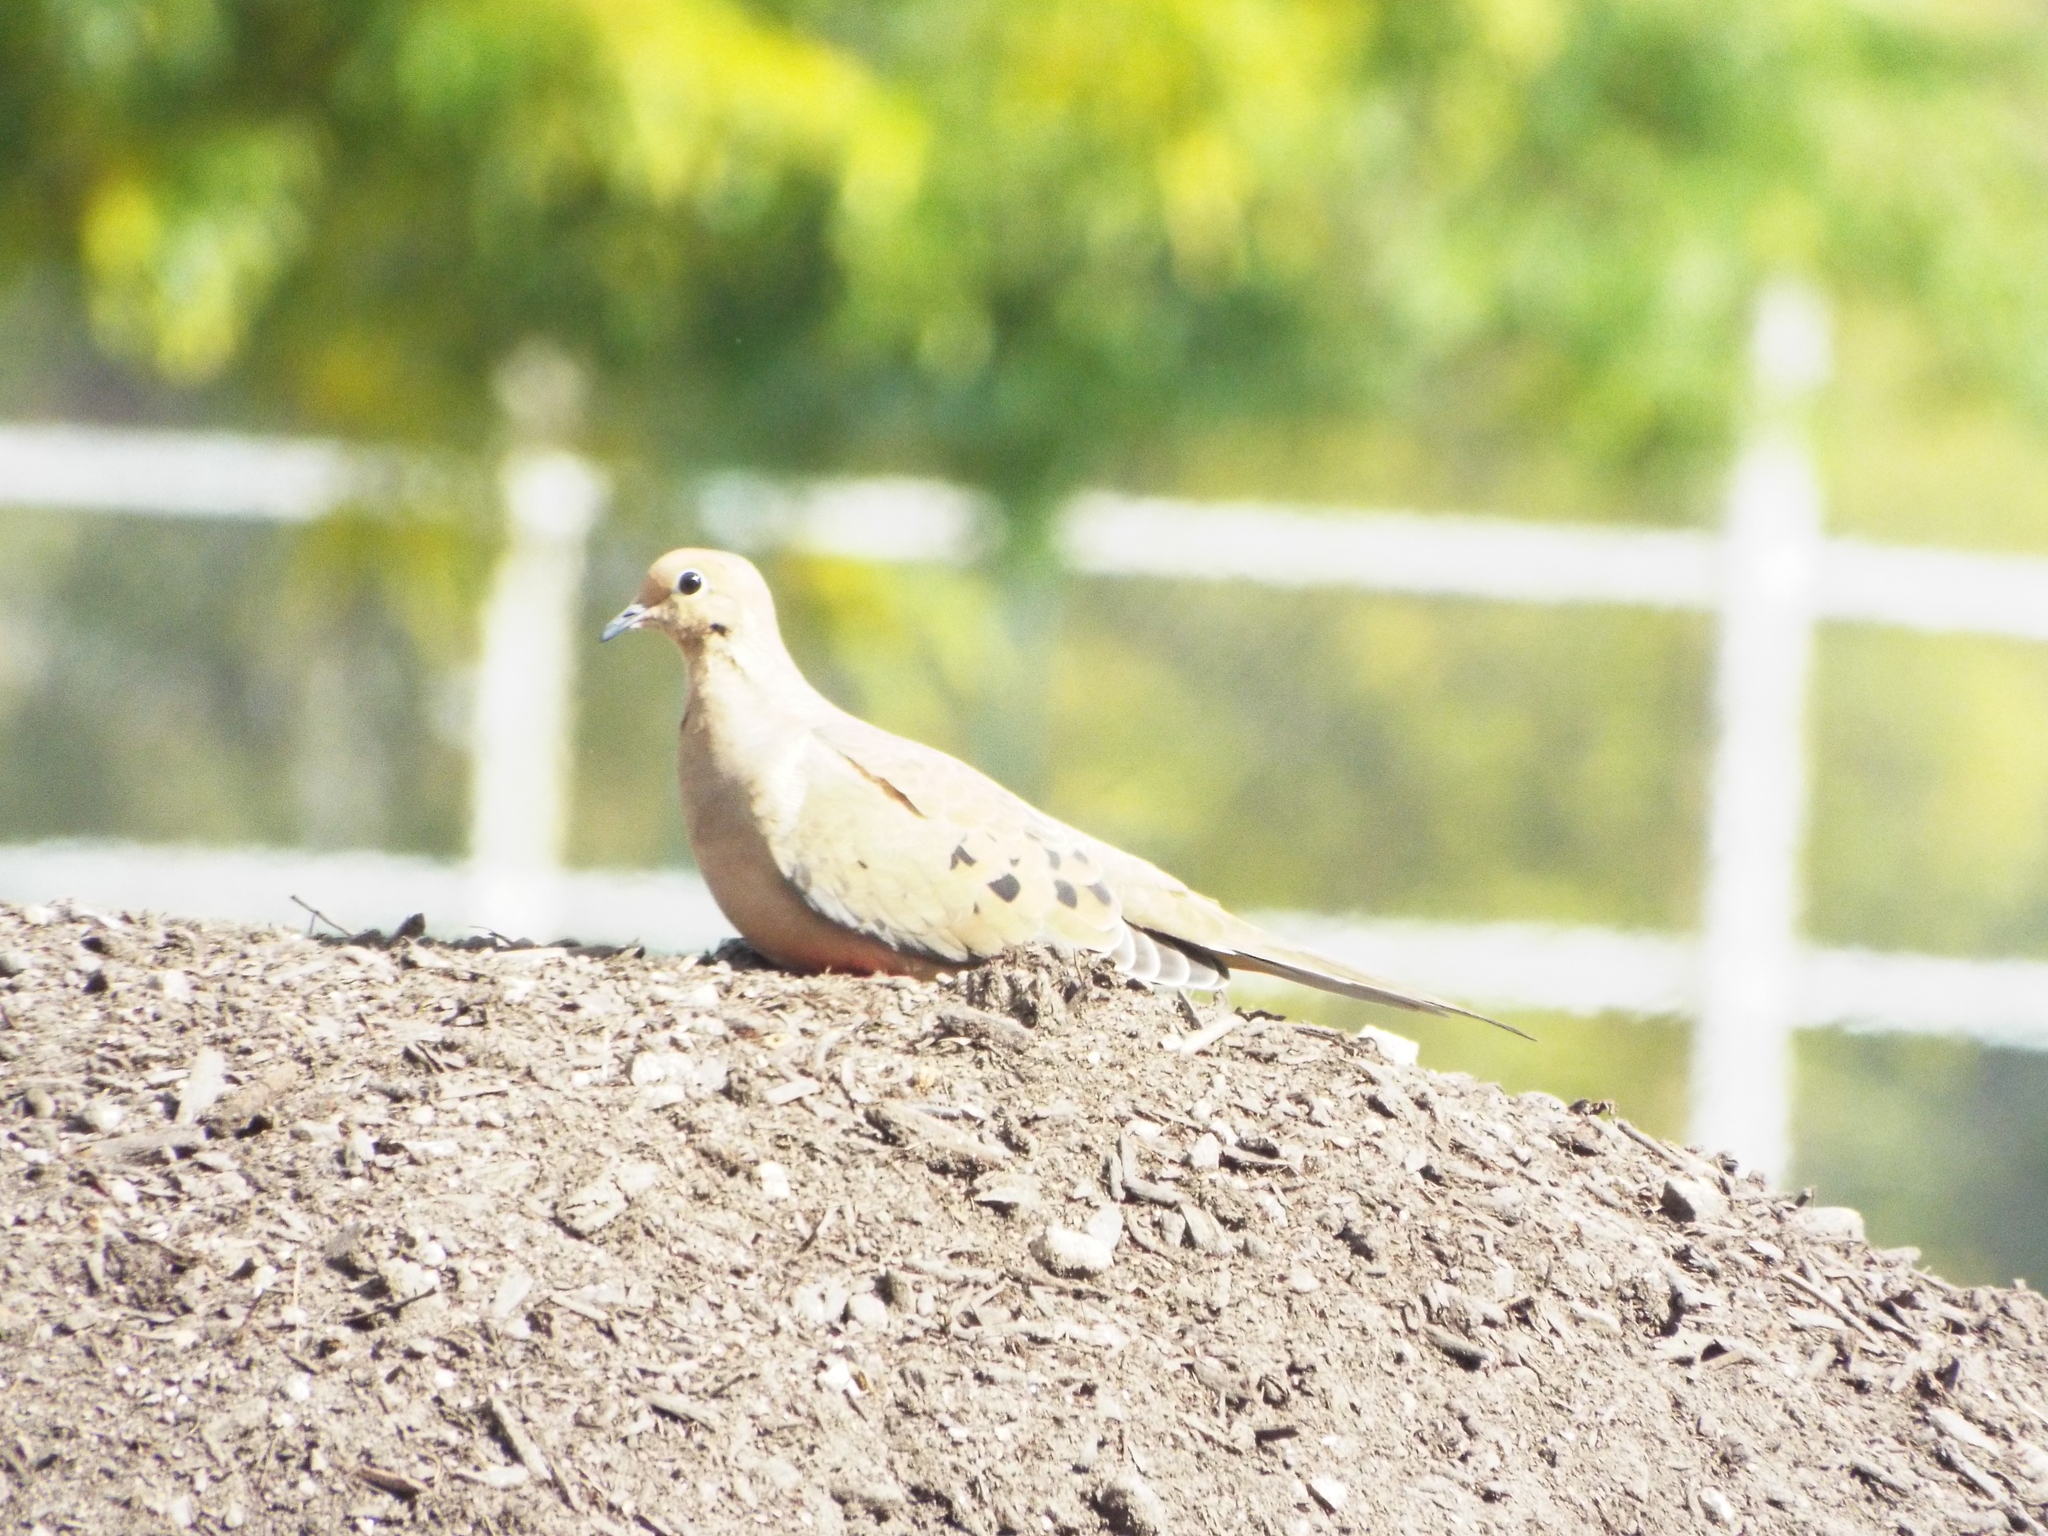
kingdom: Animalia
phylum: Chordata
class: Aves
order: Columbiformes
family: Columbidae
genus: Zenaida
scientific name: Zenaida macroura
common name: Mourning dove
